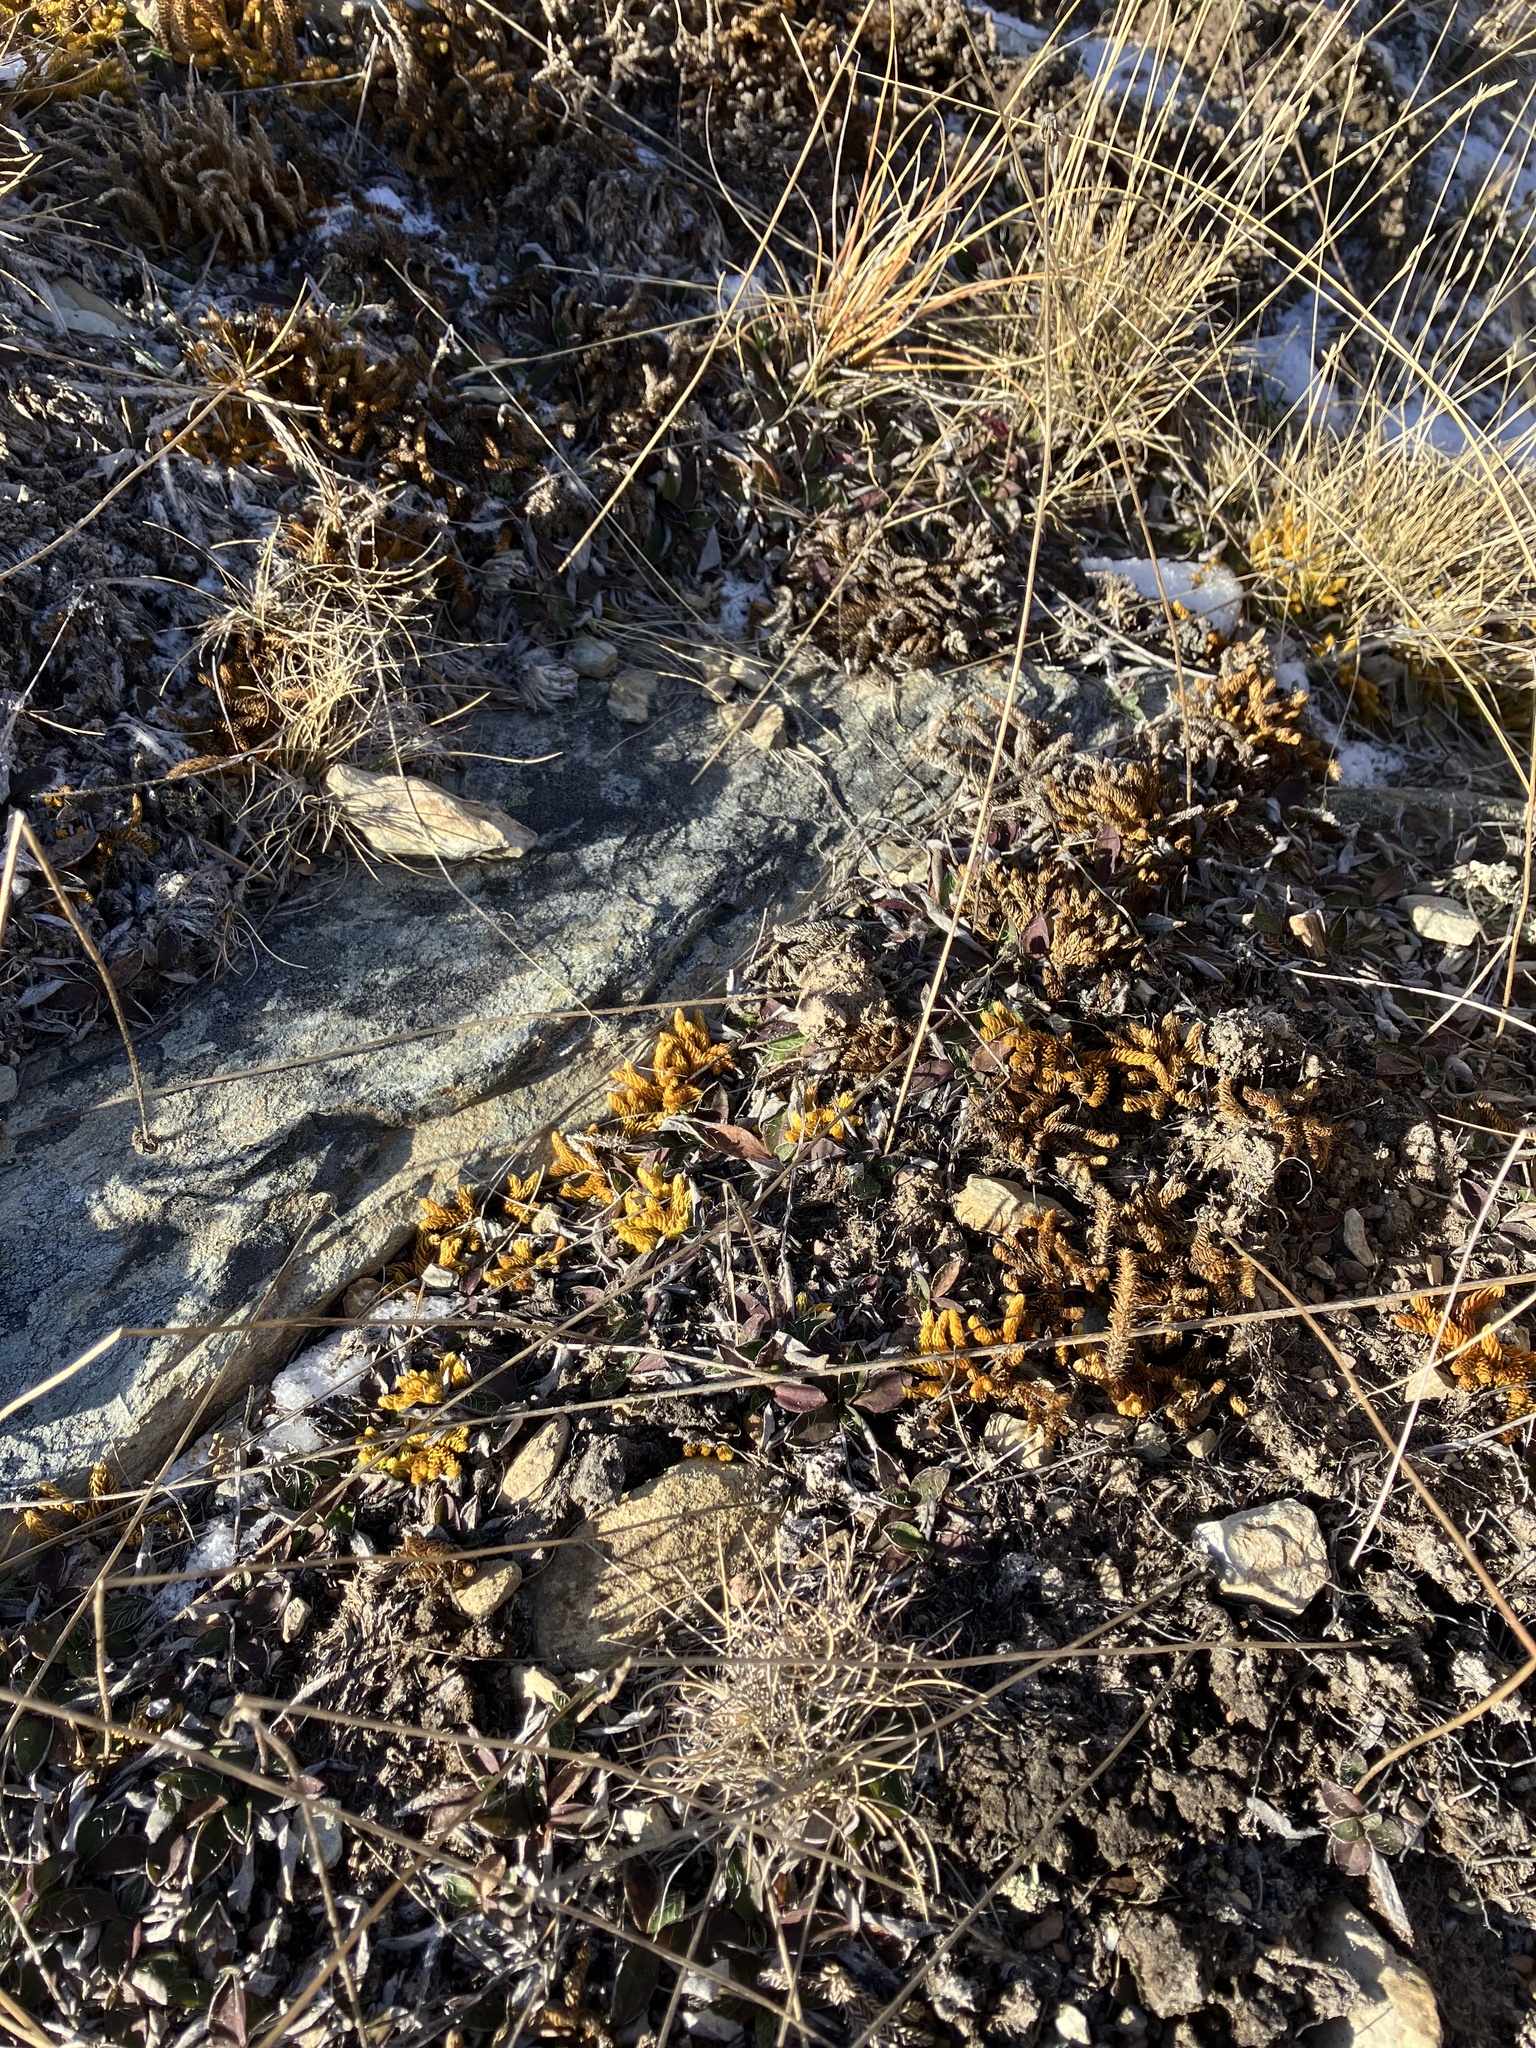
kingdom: Plantae
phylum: Tracheophyta
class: Lycopodiopsida
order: Lycopodiales
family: Lycopodiaceae
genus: Austrolycopodium
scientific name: Austrolycopodium fastigiatum
